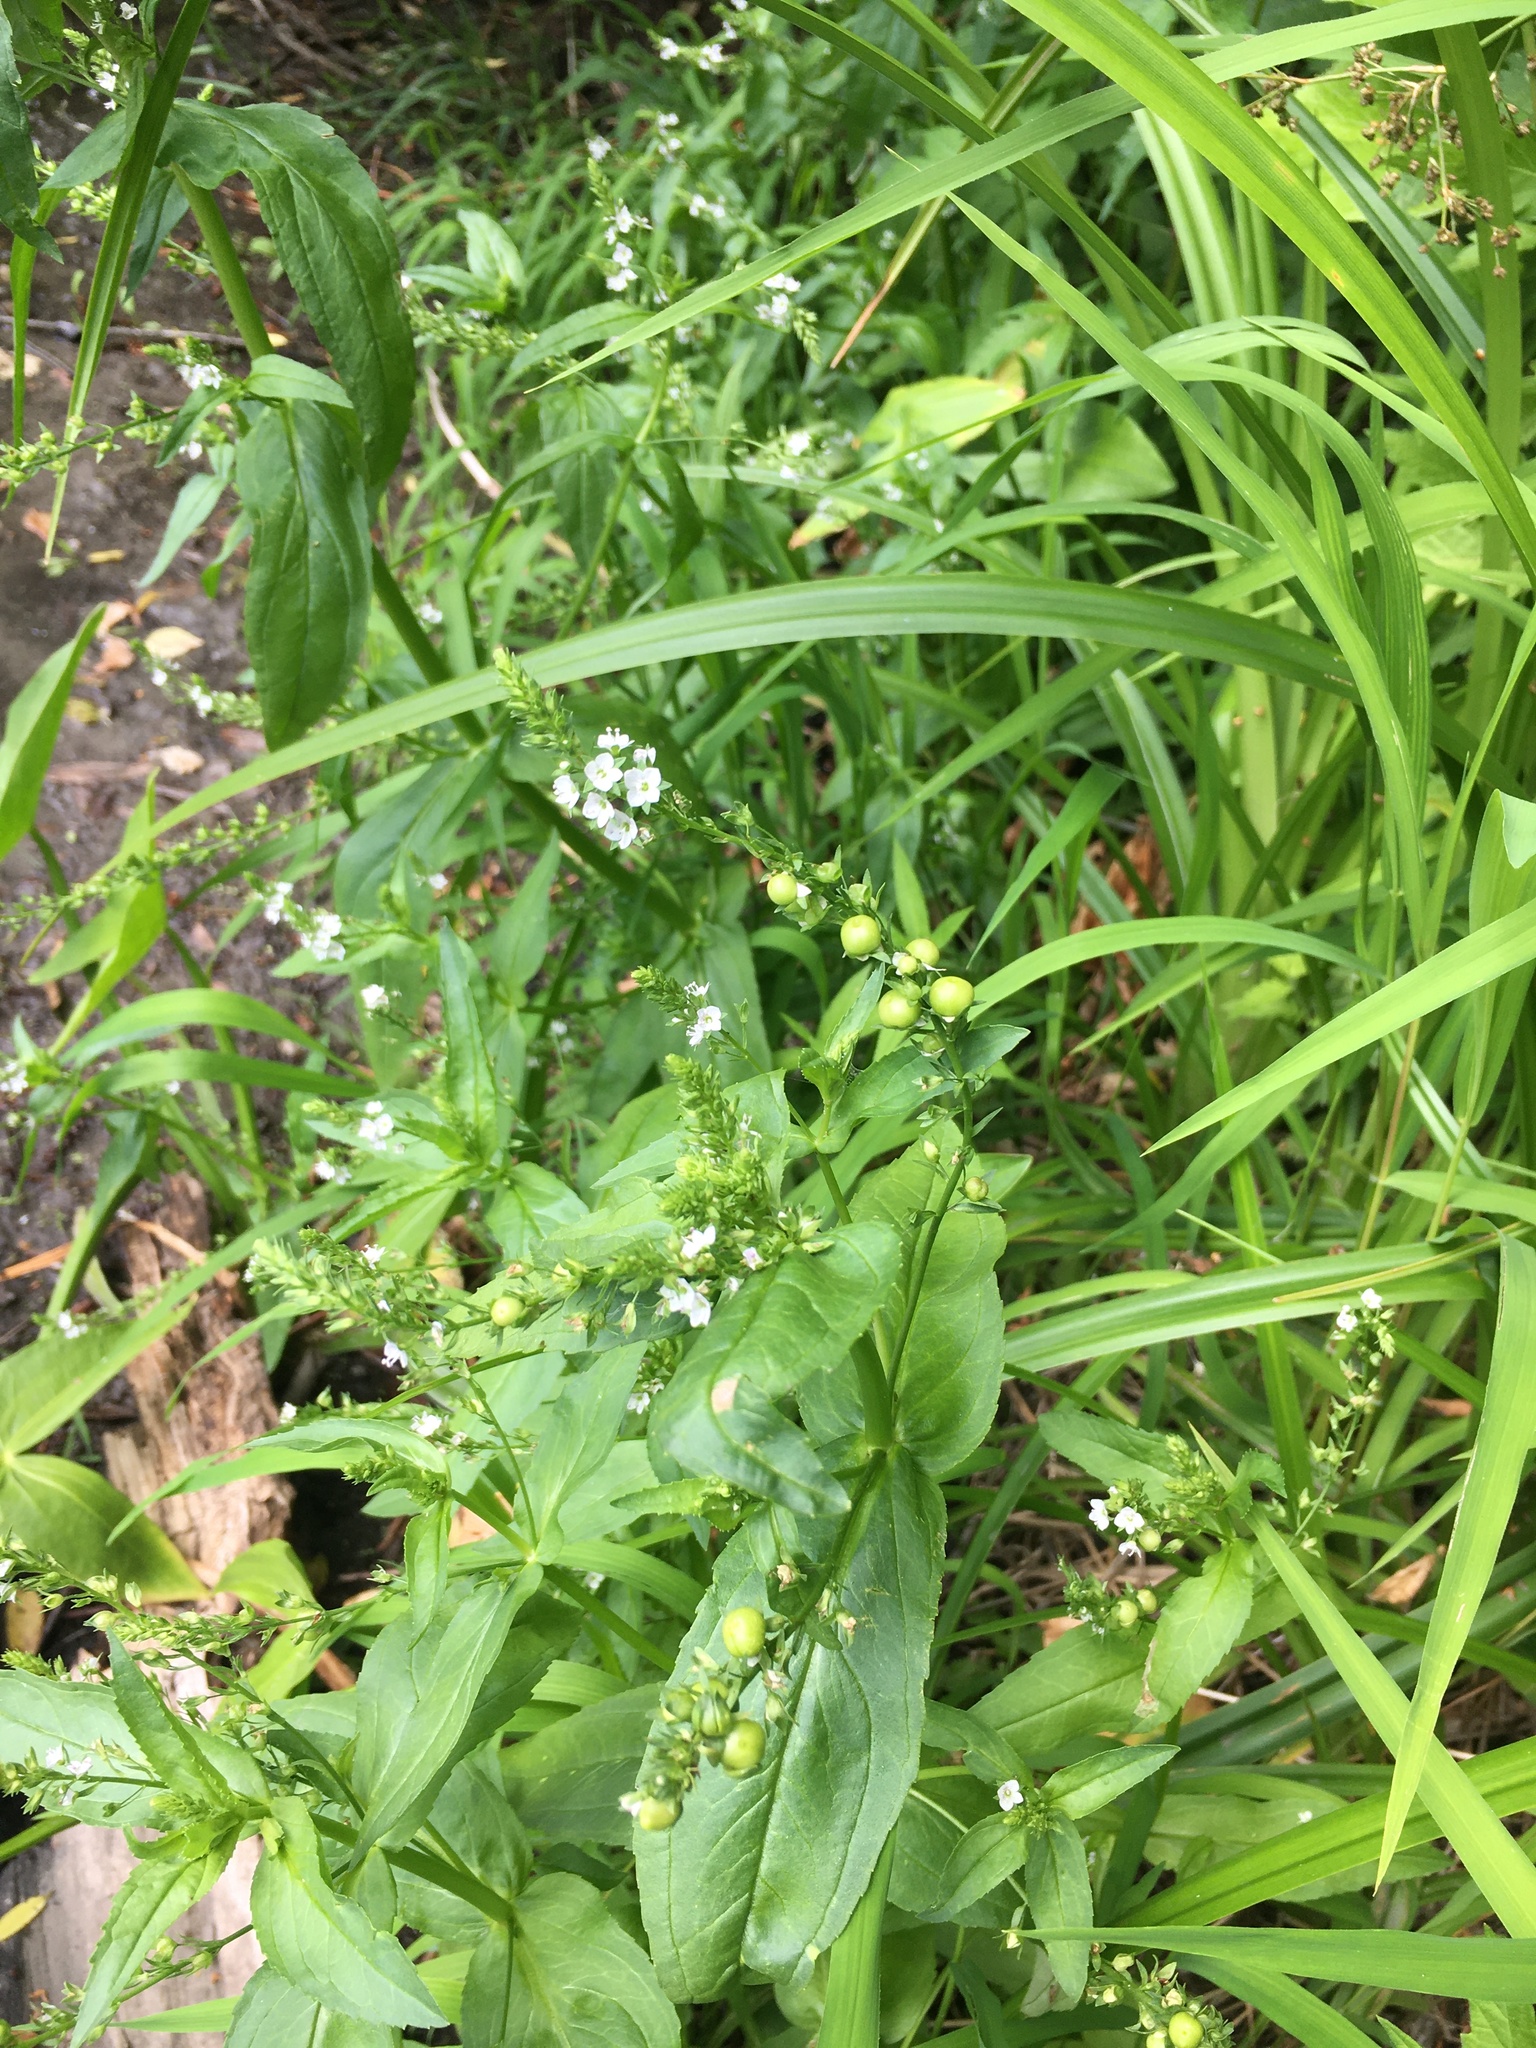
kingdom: Plantae
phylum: Tracheophyta
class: Magnoliopsida
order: Lamiales
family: Plantaginaceae
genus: Veronica
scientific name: Veronica anagallis-aquatica
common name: Water speedwell
